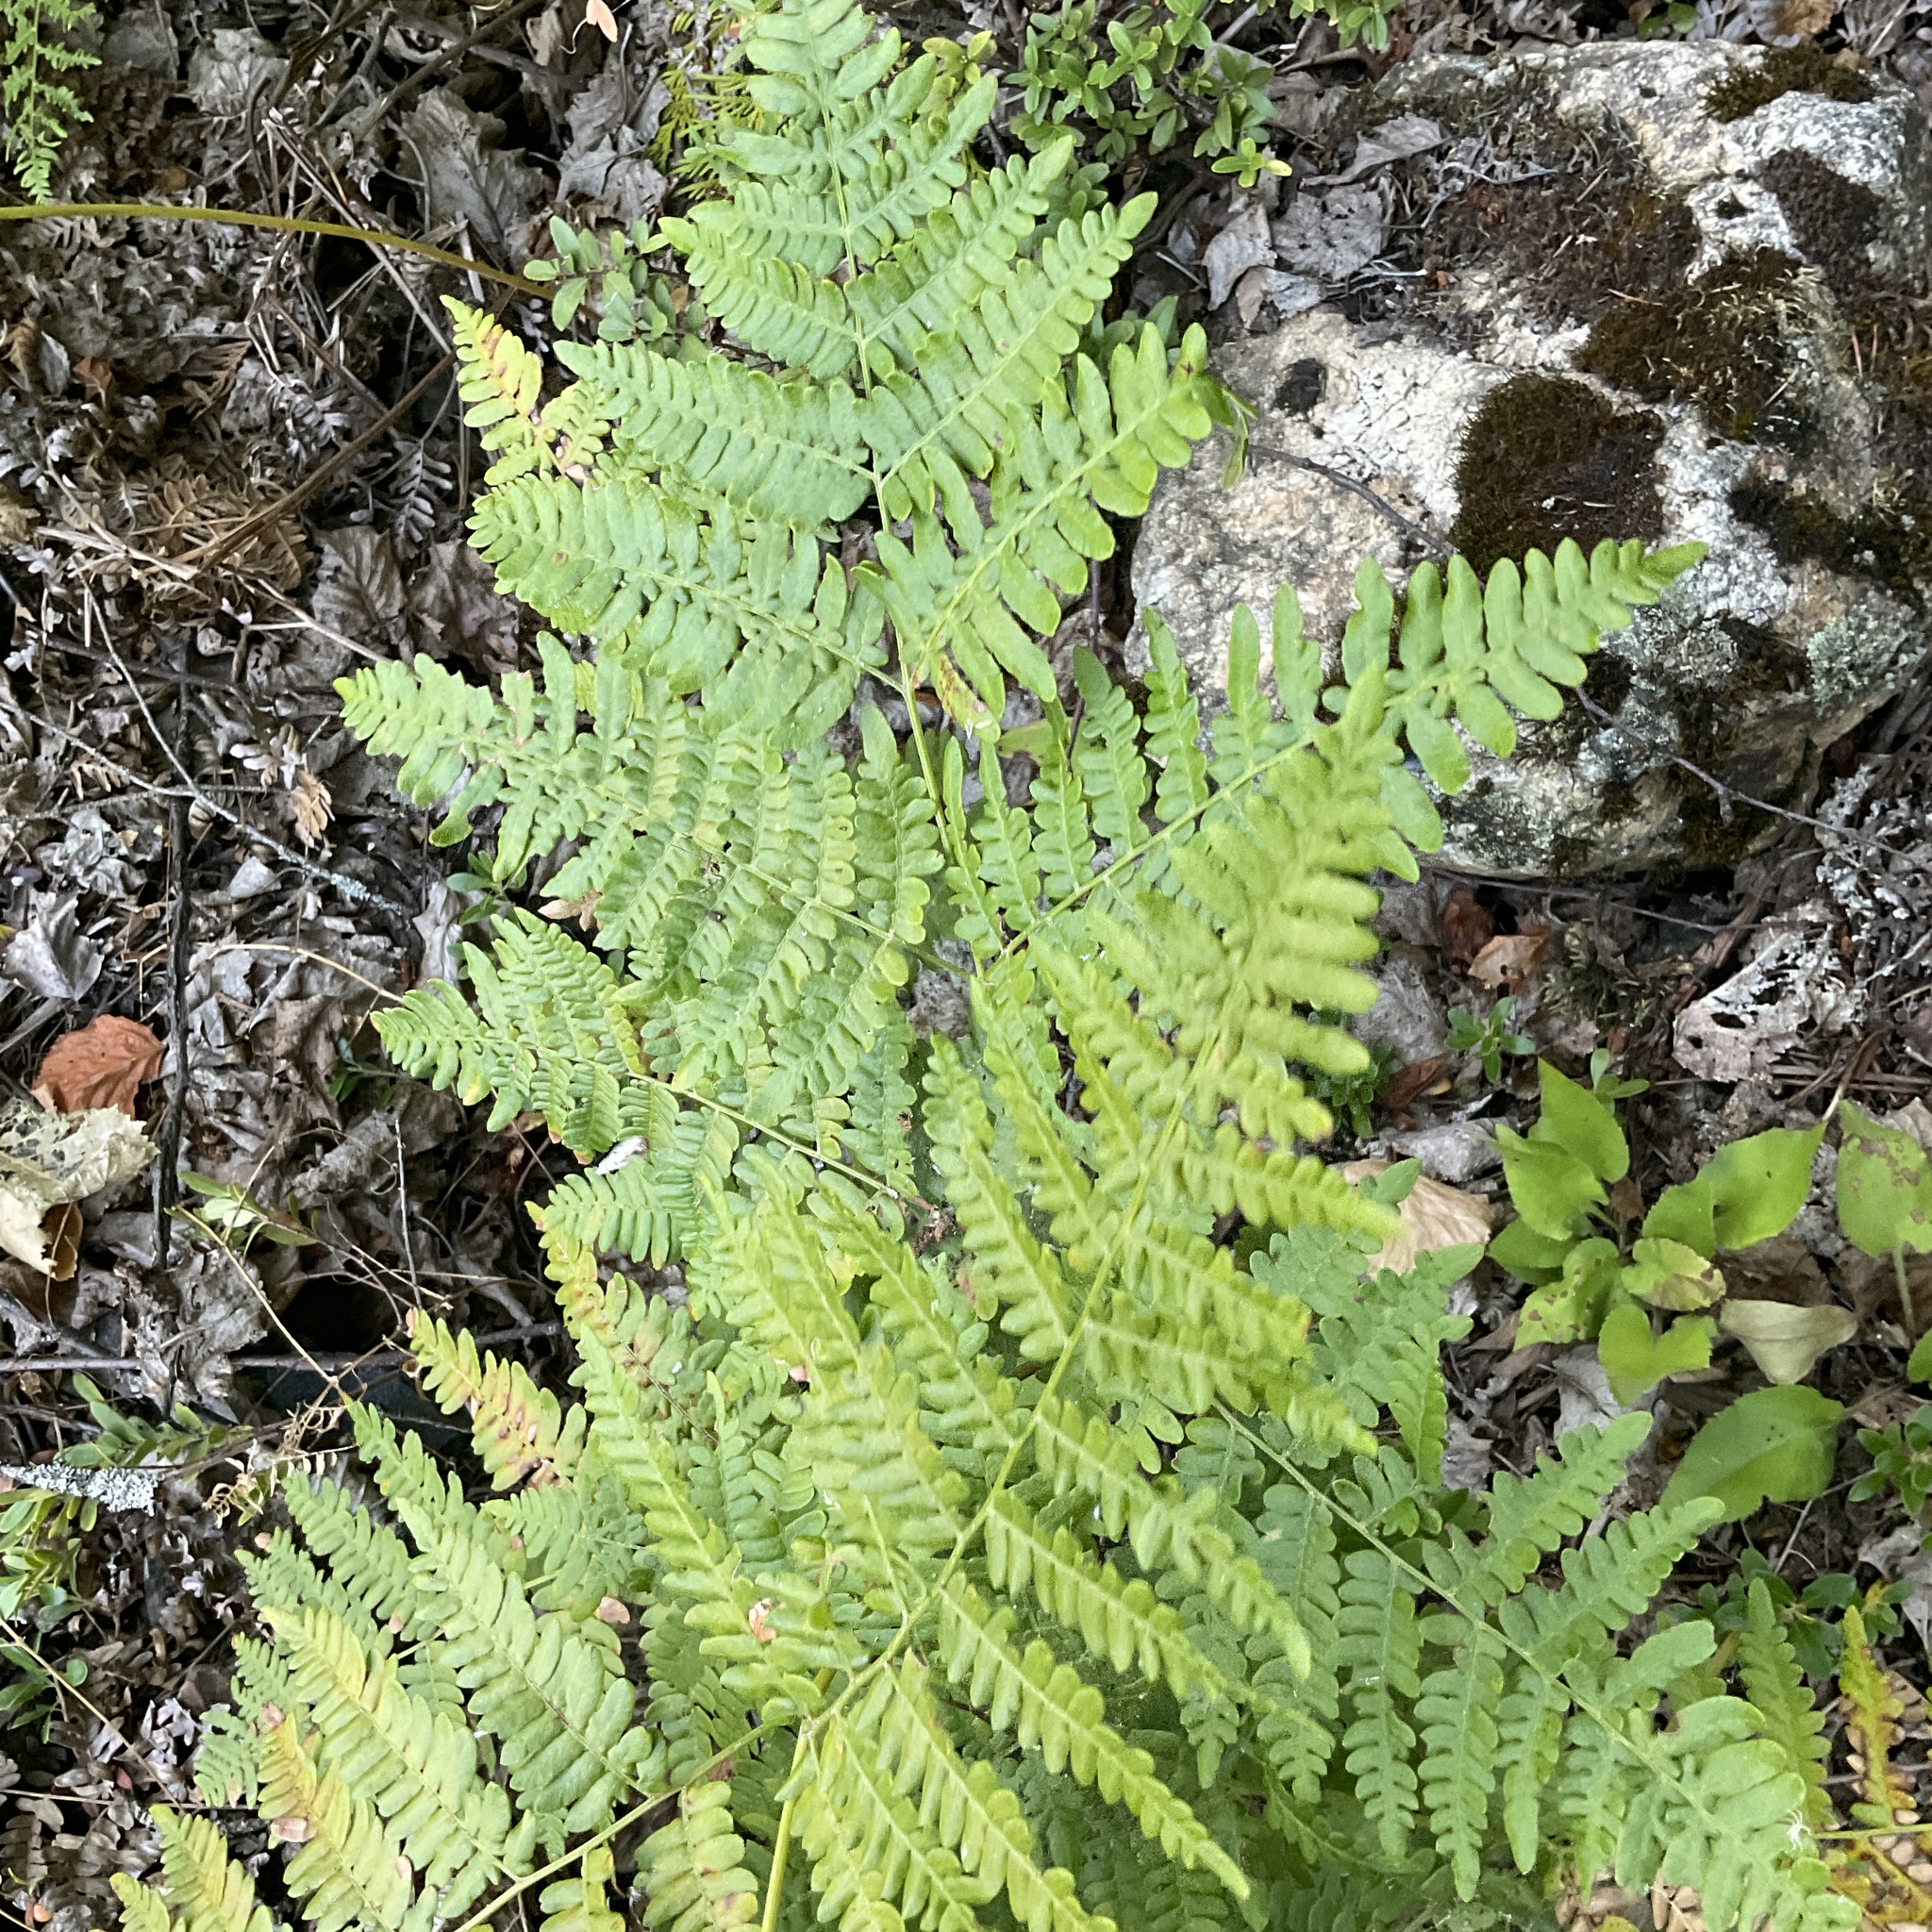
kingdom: Plantae
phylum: Tracheophyta
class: Polypodiopsida
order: Polypodiales
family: Dennstaedtiaceae
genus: Pteridium
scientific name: Pteridium aquilinum
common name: Bracken
